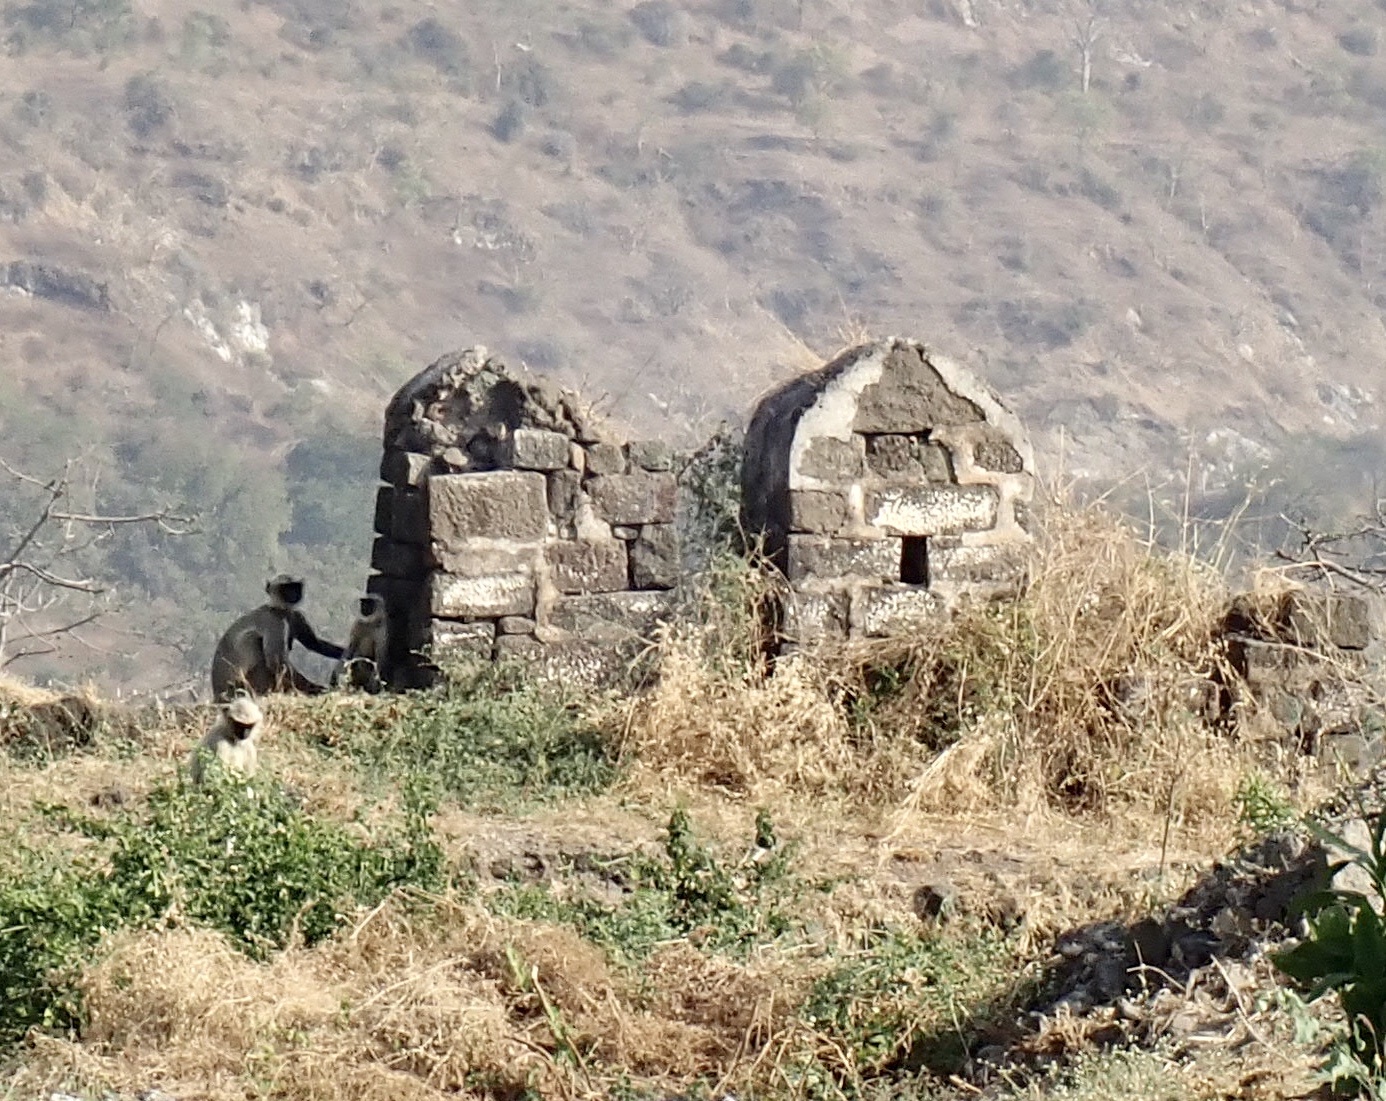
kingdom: Animalia
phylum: Chordata
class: Mammalia
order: Primates
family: Cercopithecidae
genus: Semnopithecus
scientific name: Semnopithecus hypoleucos
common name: Black-footed gray langur
